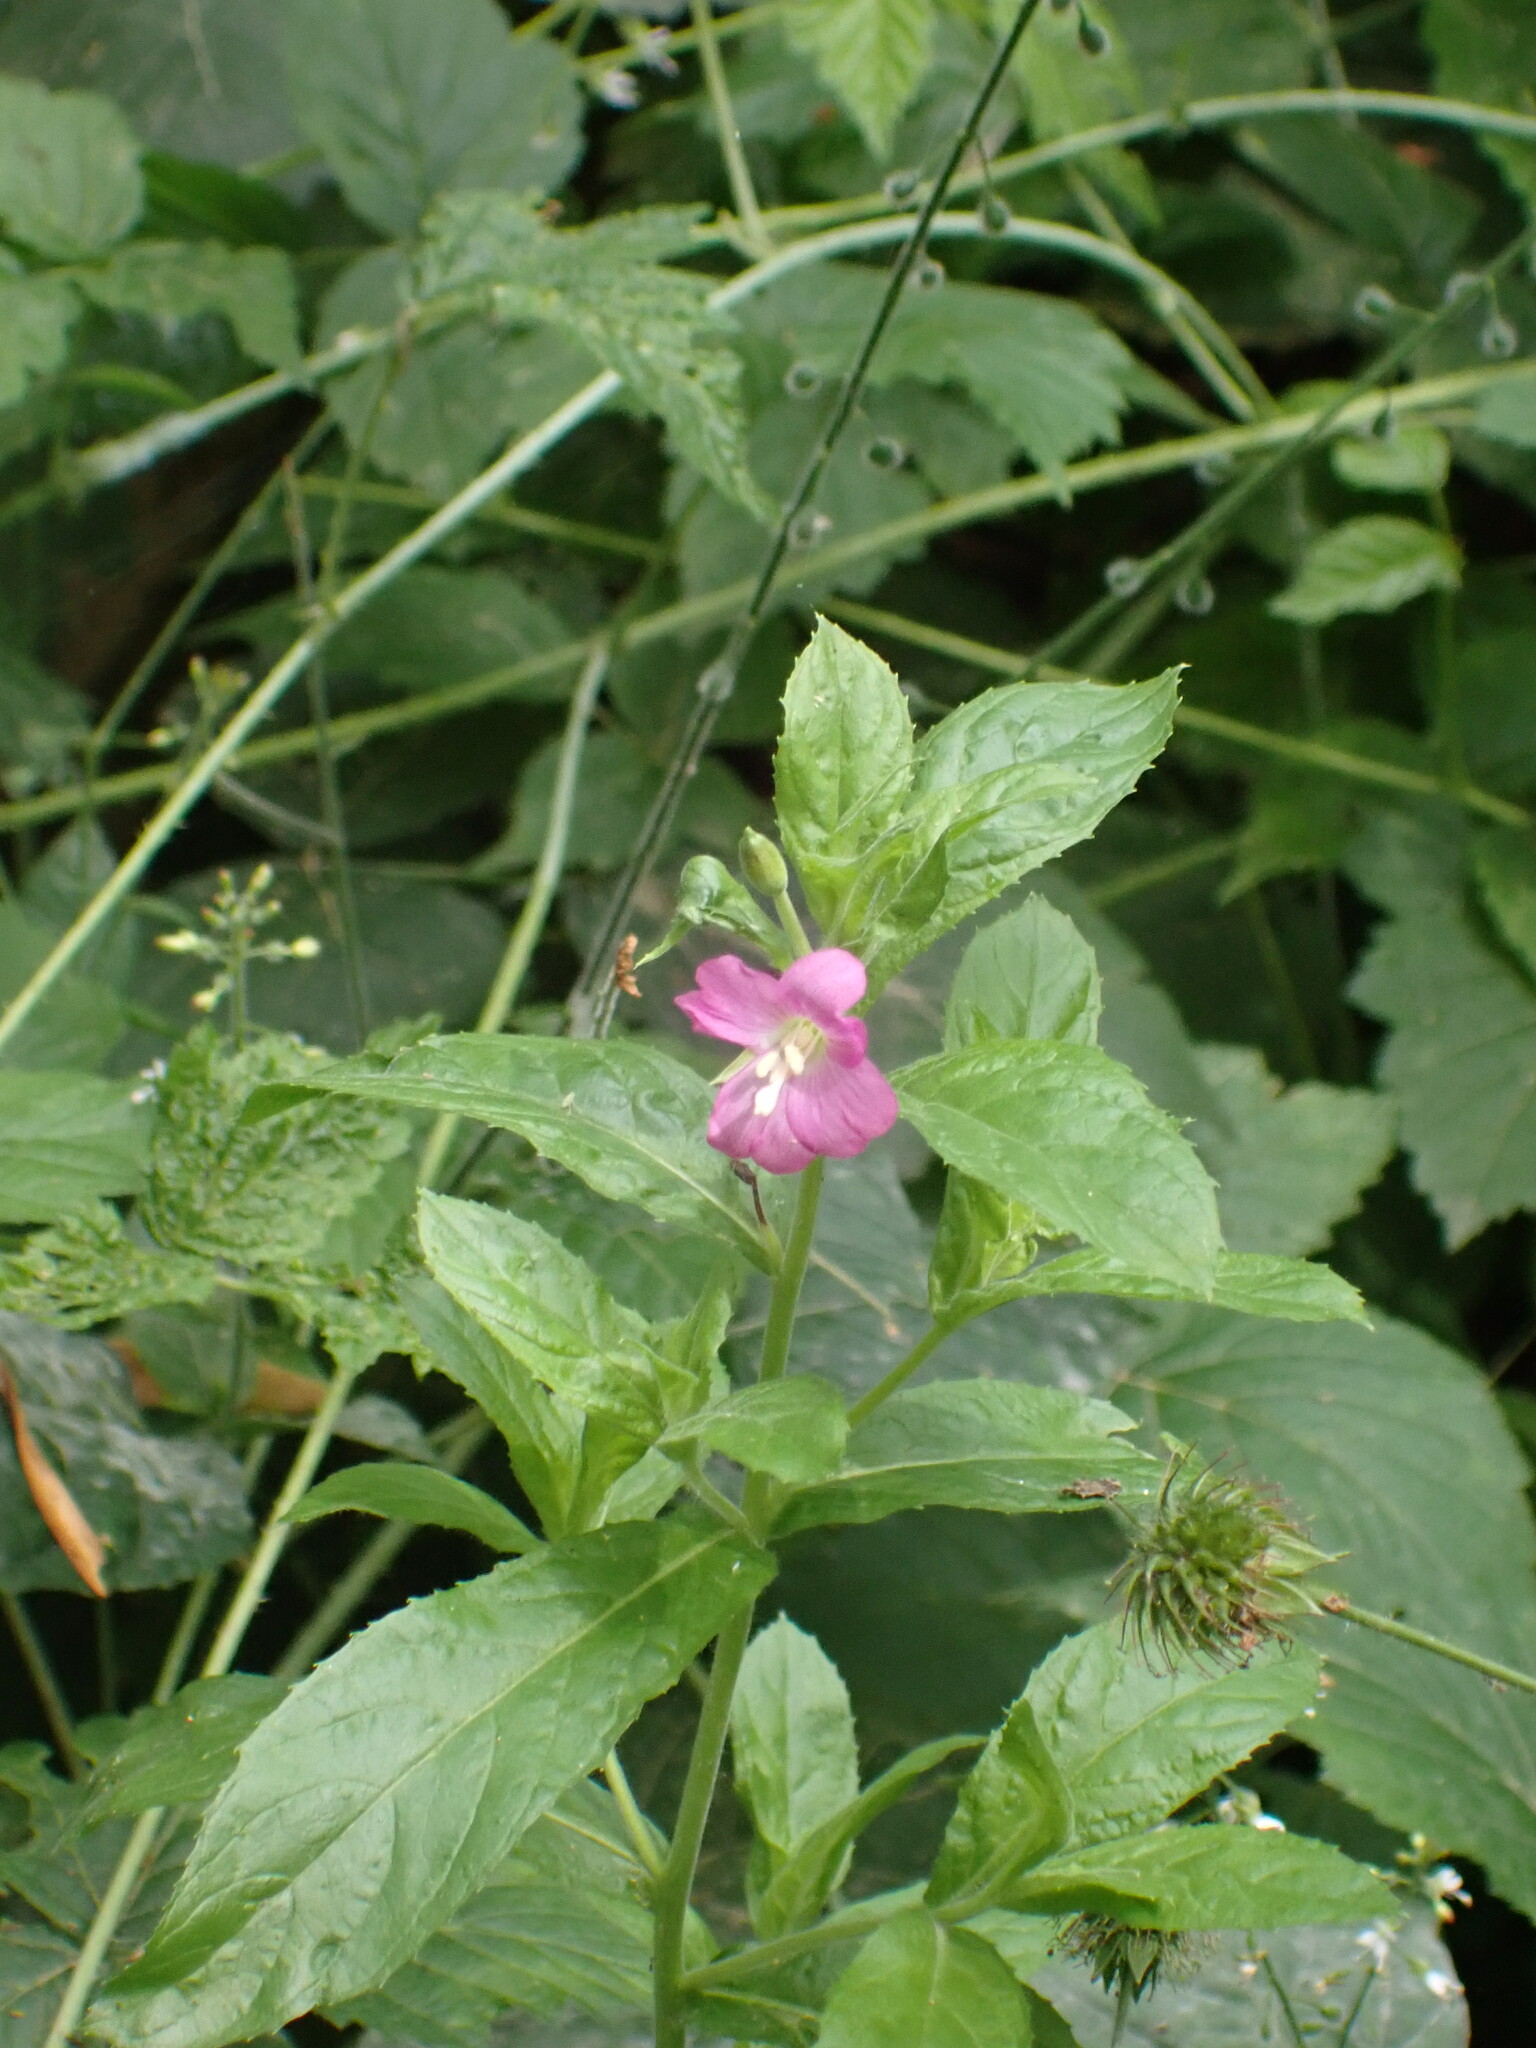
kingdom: Plantae
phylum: Tracheophyta
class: Magnoliopsida
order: Myrtales
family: Onagraceae
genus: Epilobium
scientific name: Epilobium hirsutum
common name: Great willowherb
